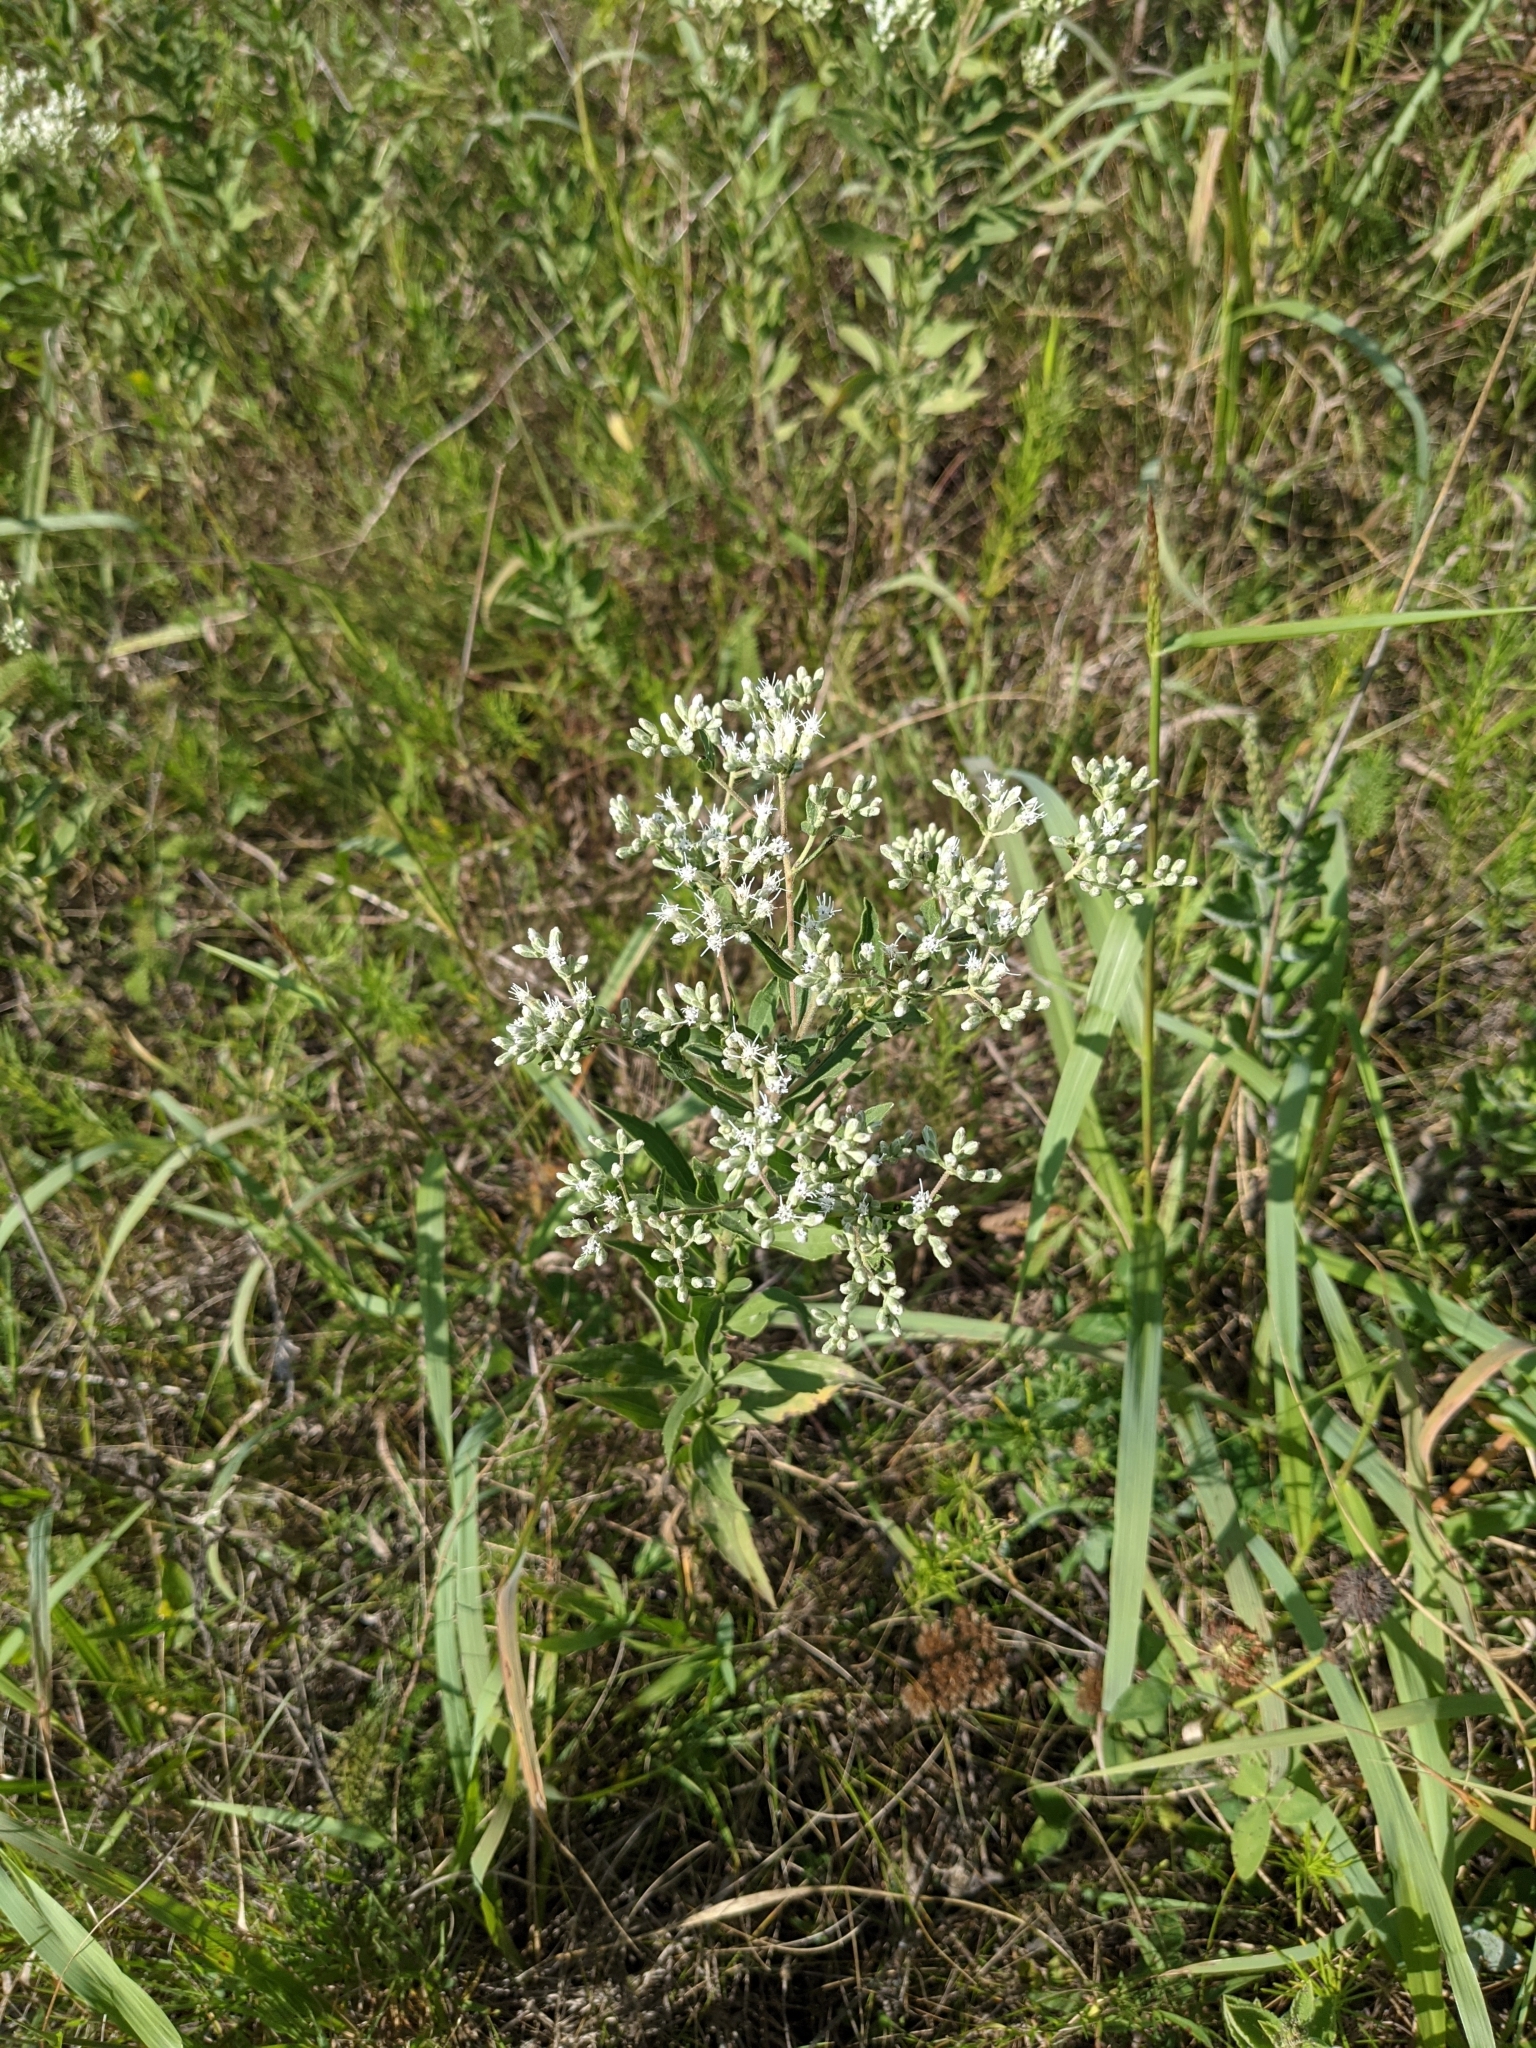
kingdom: Plantae
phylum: Tracheophyta
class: Magnoliopsida
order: Asterales
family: Asteraceae
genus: Eupatorium
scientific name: Eupatorium altissimum
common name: Tall thoroughwort
